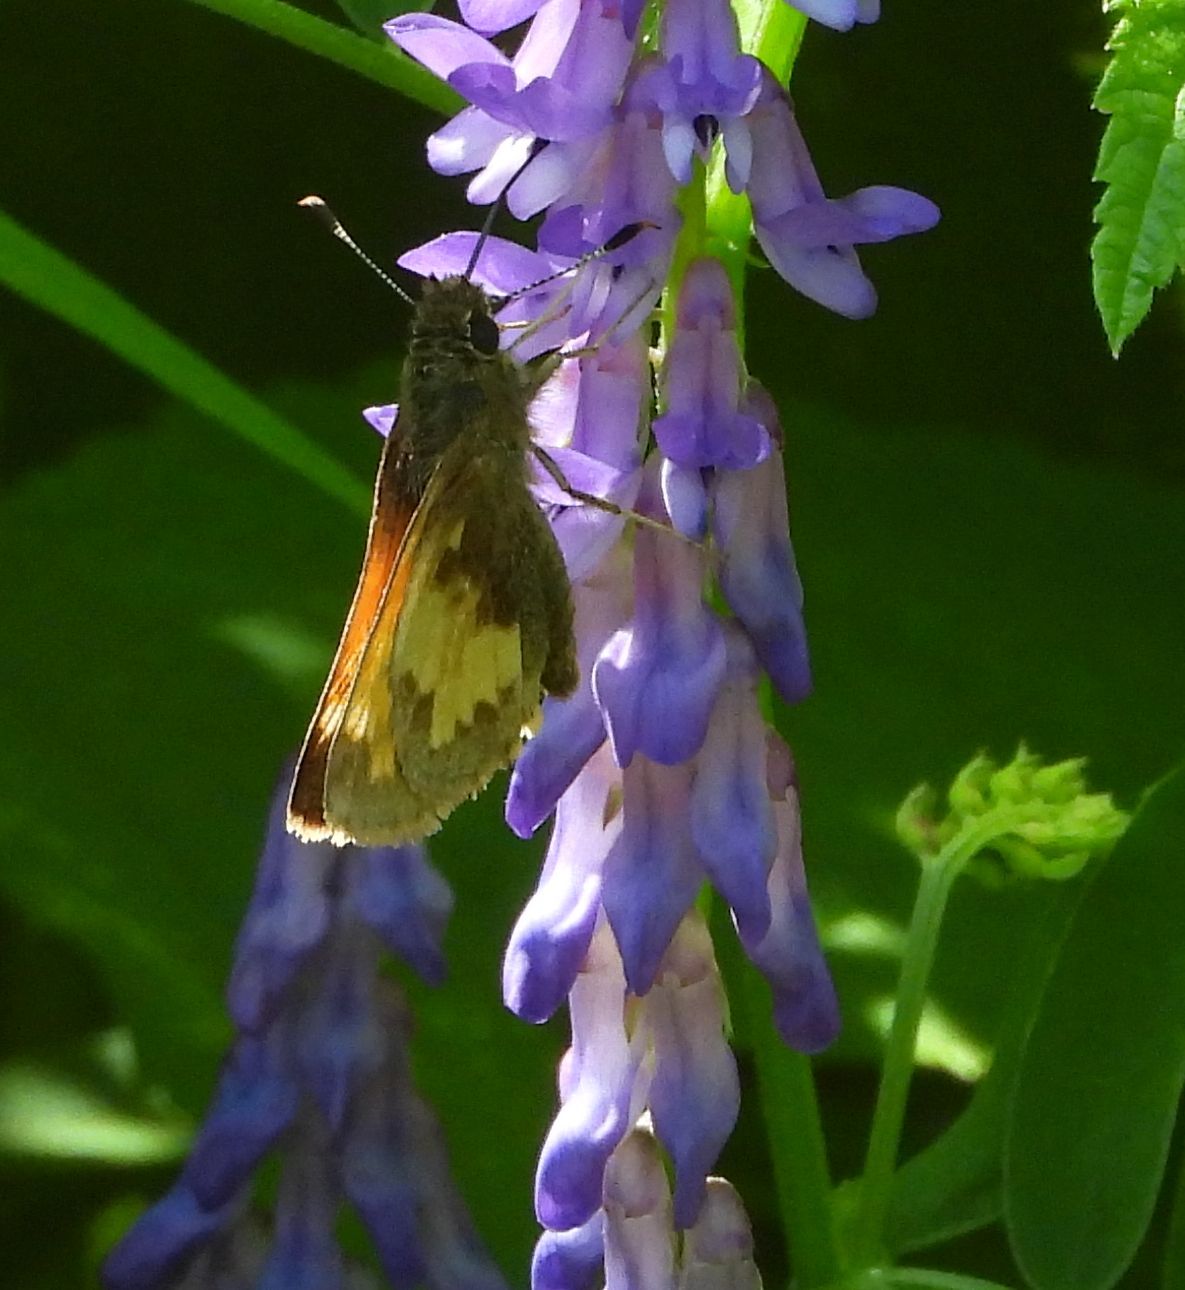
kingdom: Animalia
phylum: Arthropoda
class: Insecta
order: Lepidoptera
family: Hesperiidae
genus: Lon
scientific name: Lon hobomok
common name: Hobomok skipper
